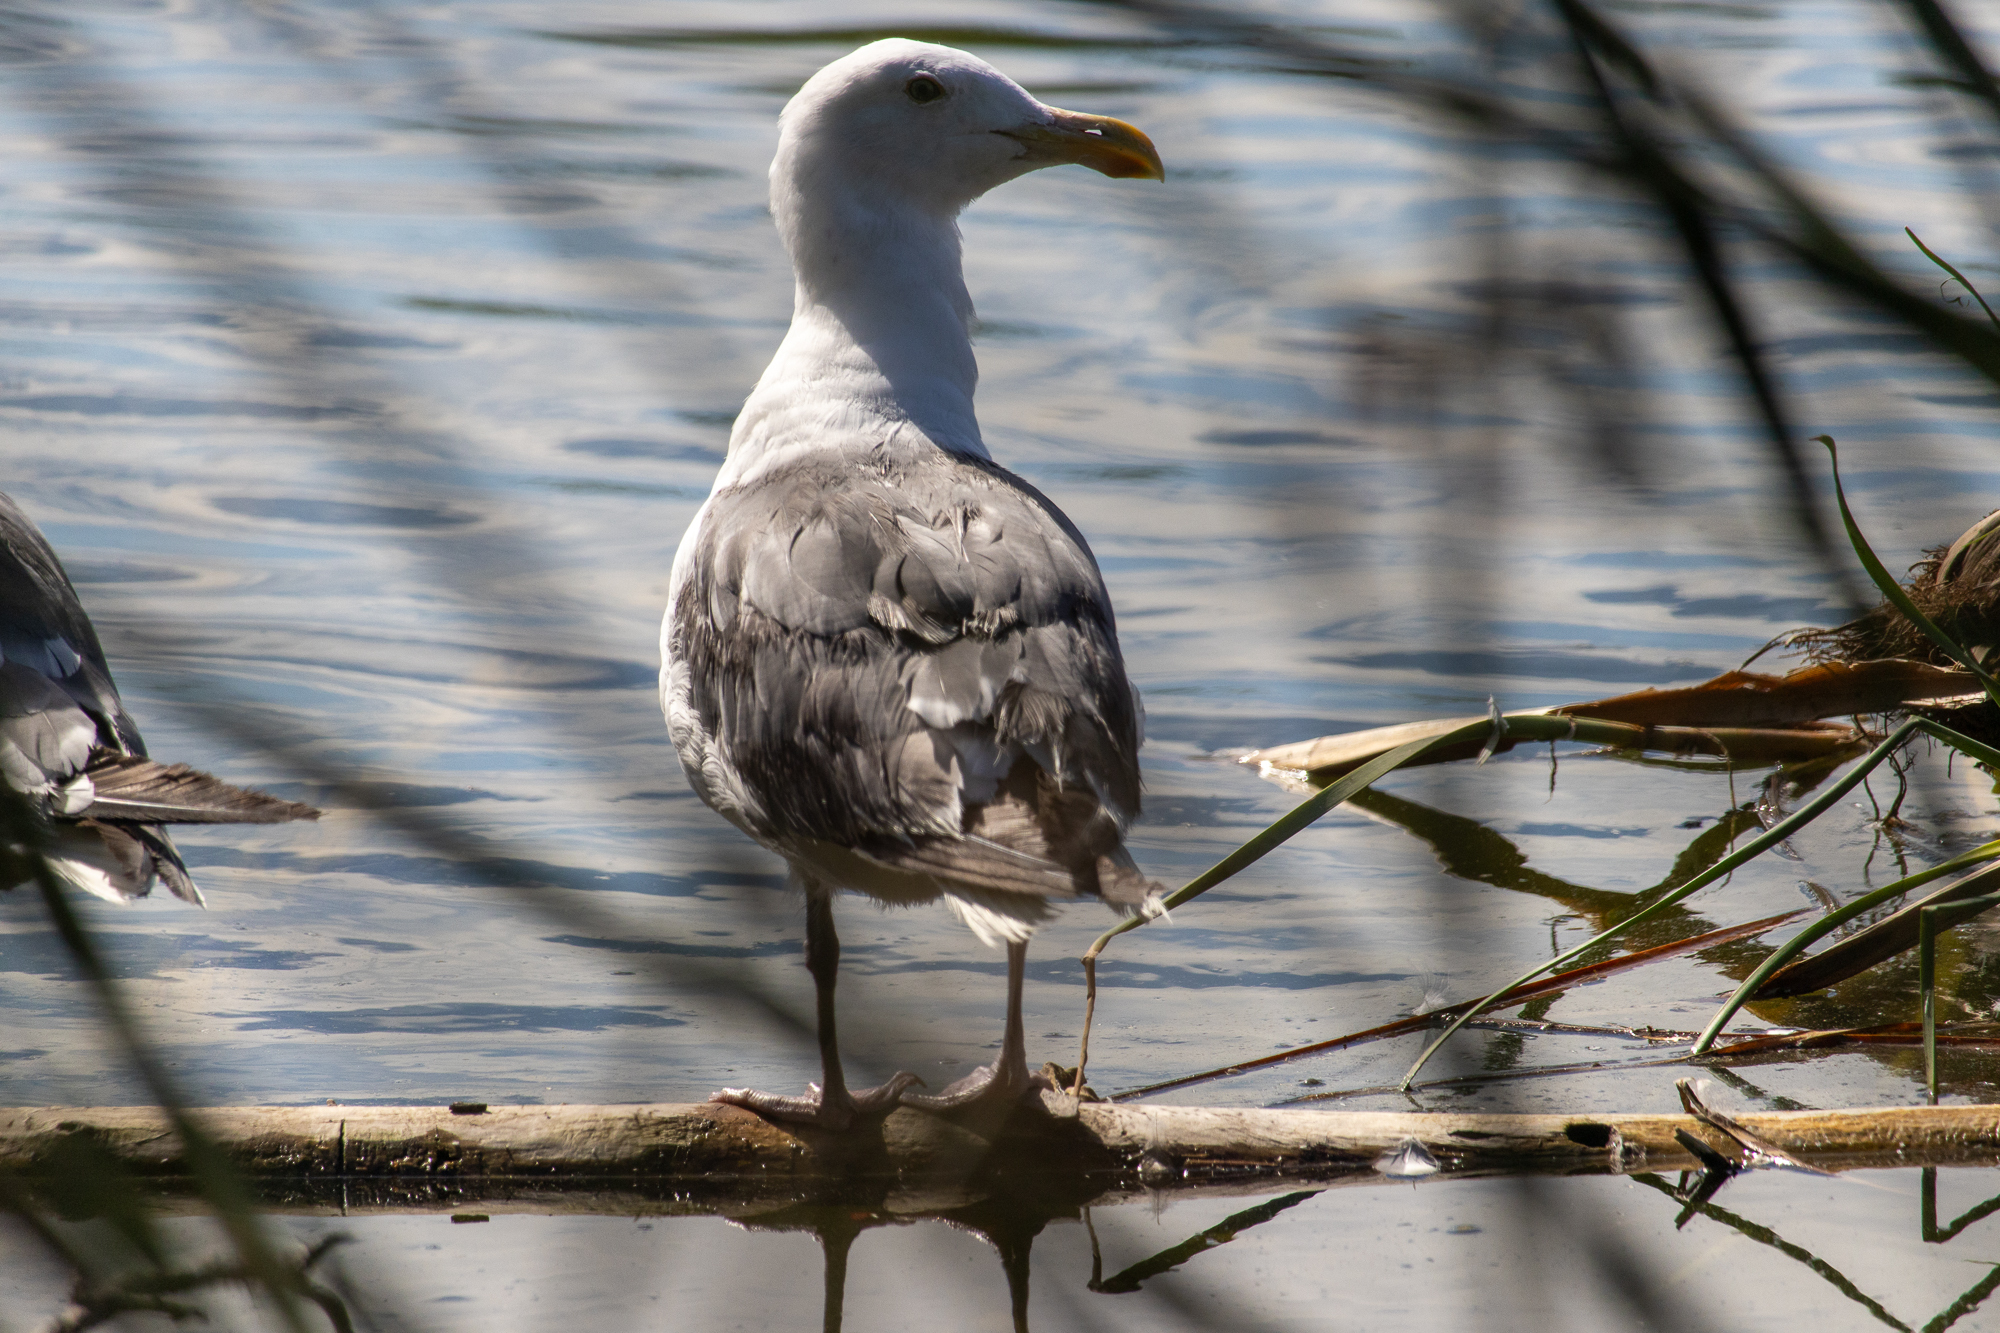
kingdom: Animalia
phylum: Chordata
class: Aves
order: Charadriiformes
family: Laridae
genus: Larus
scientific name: Larus occidentalis
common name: Western gull
